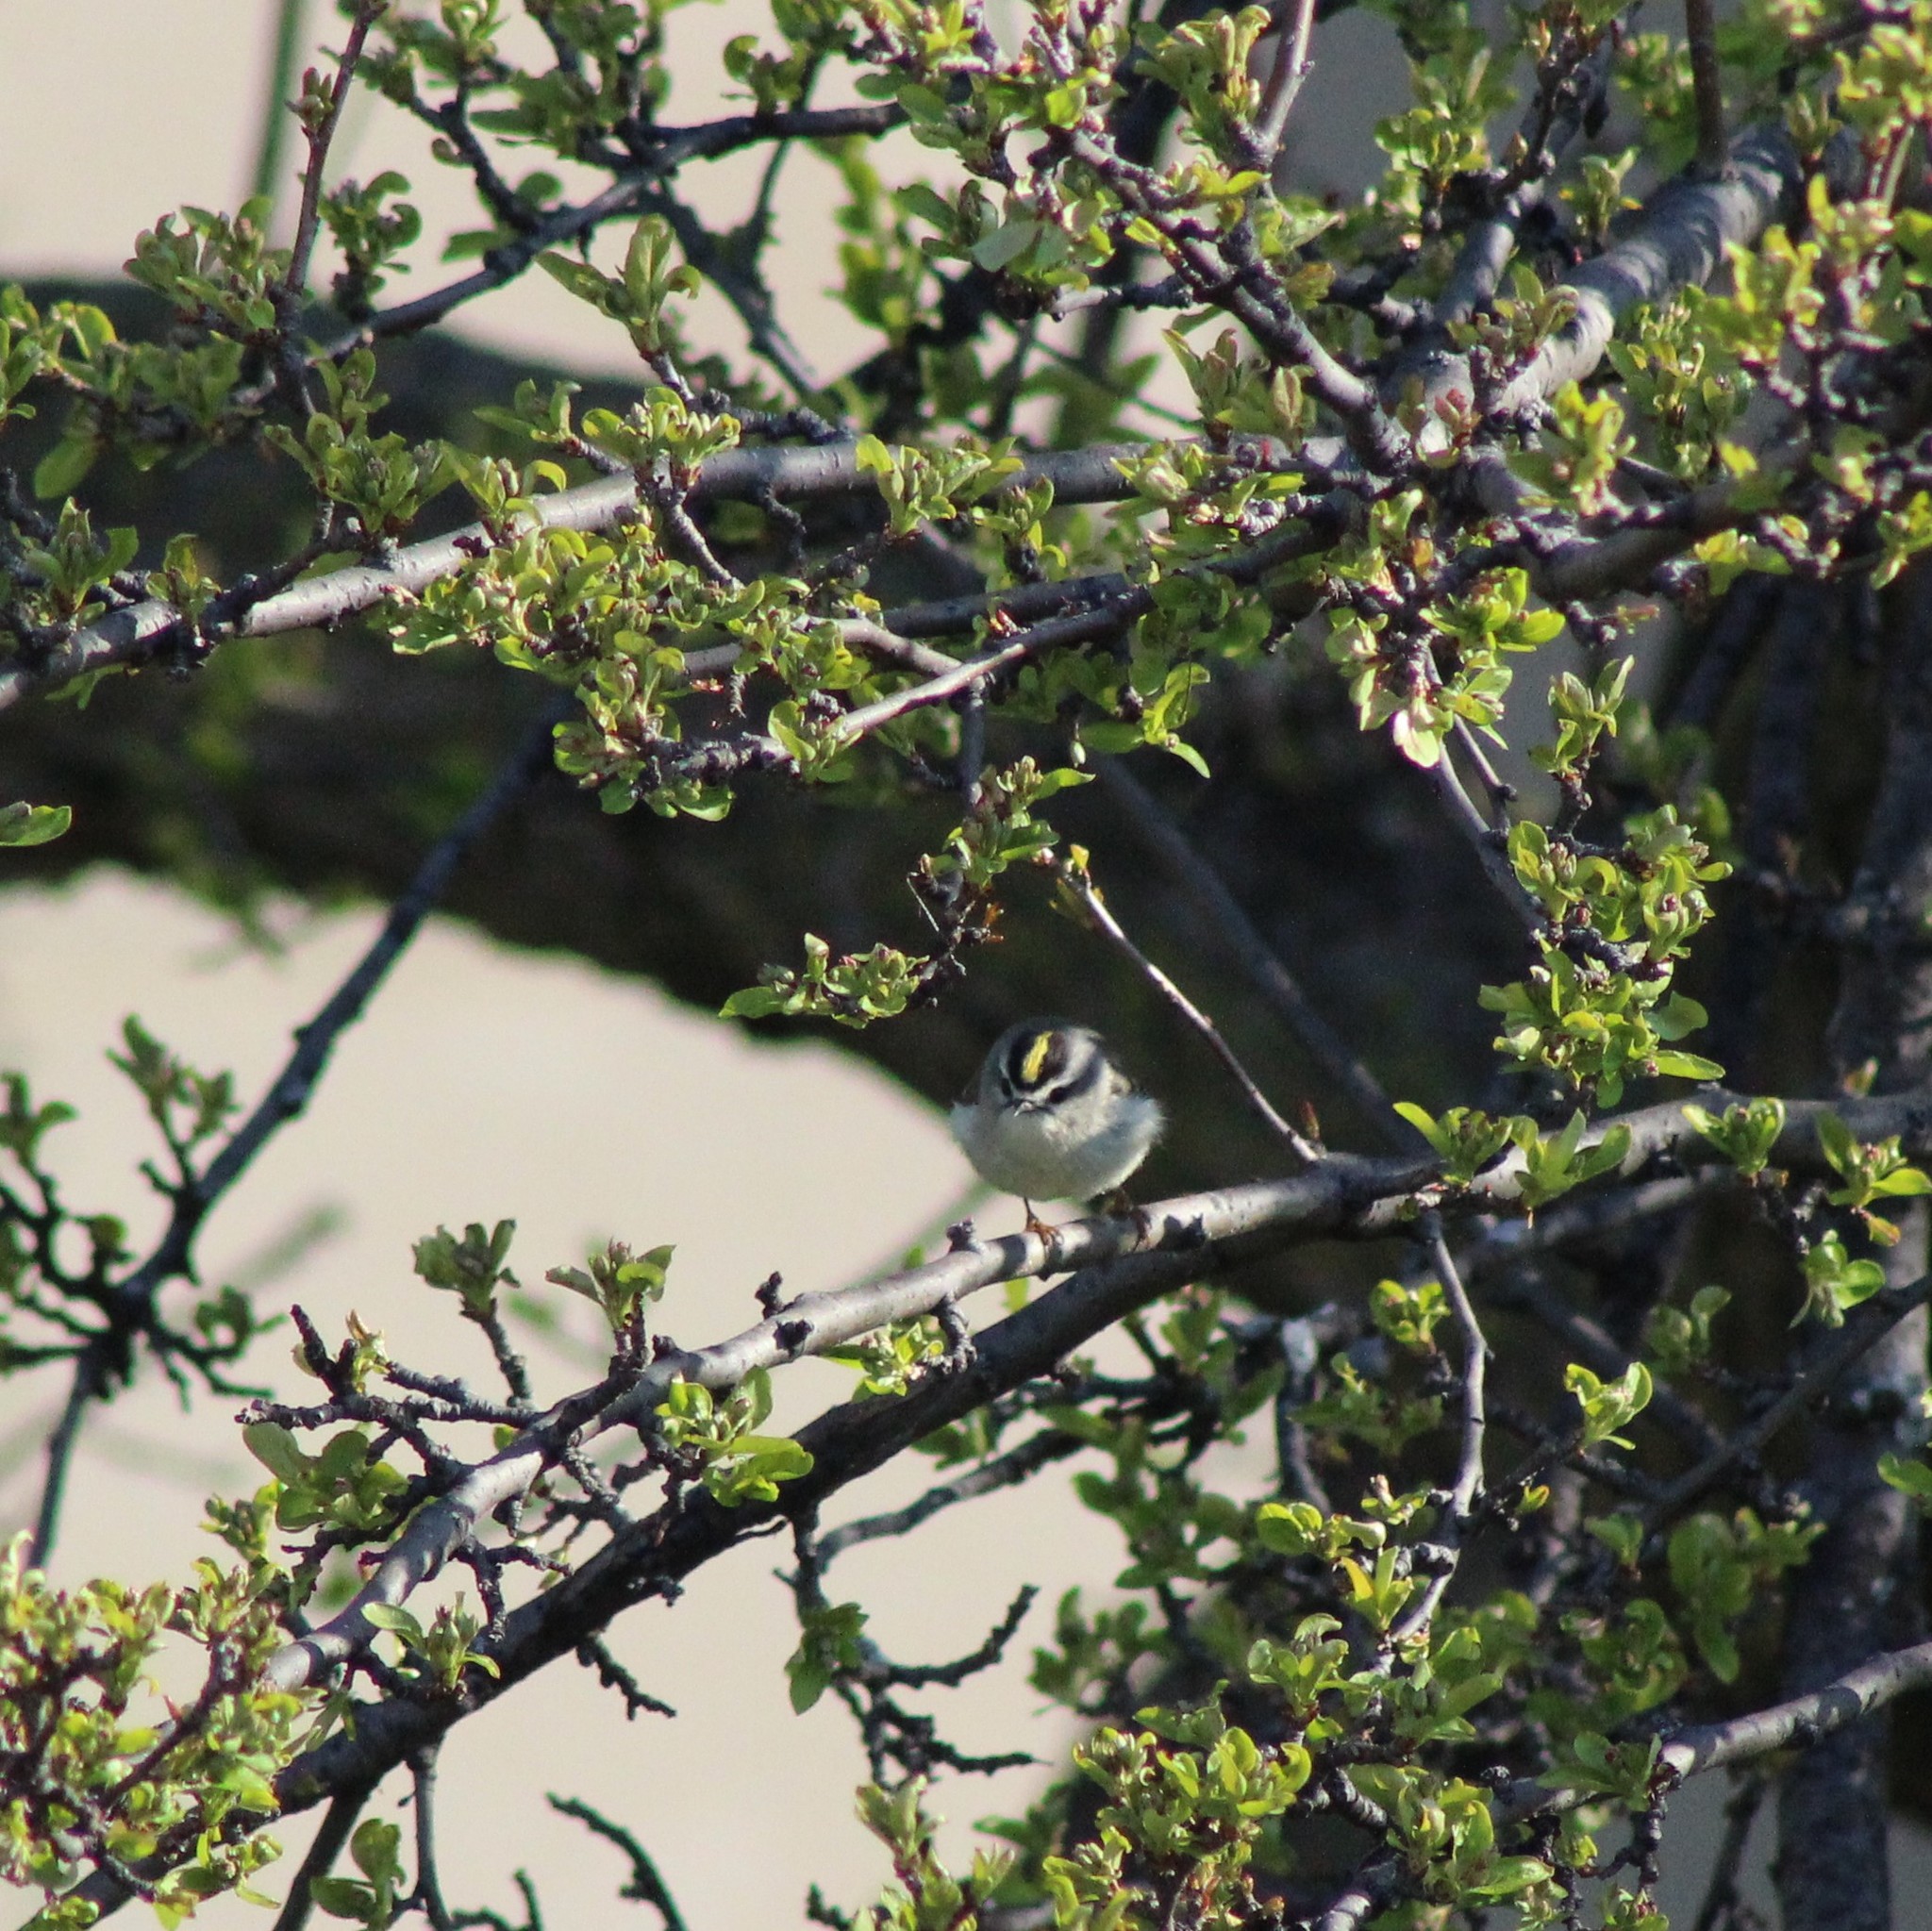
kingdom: Animalia
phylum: Chordata
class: Aves
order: Passeriformes
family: Regulidae
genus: Regulus
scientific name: Regulus satrapa
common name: Golden-crowned kinglet
